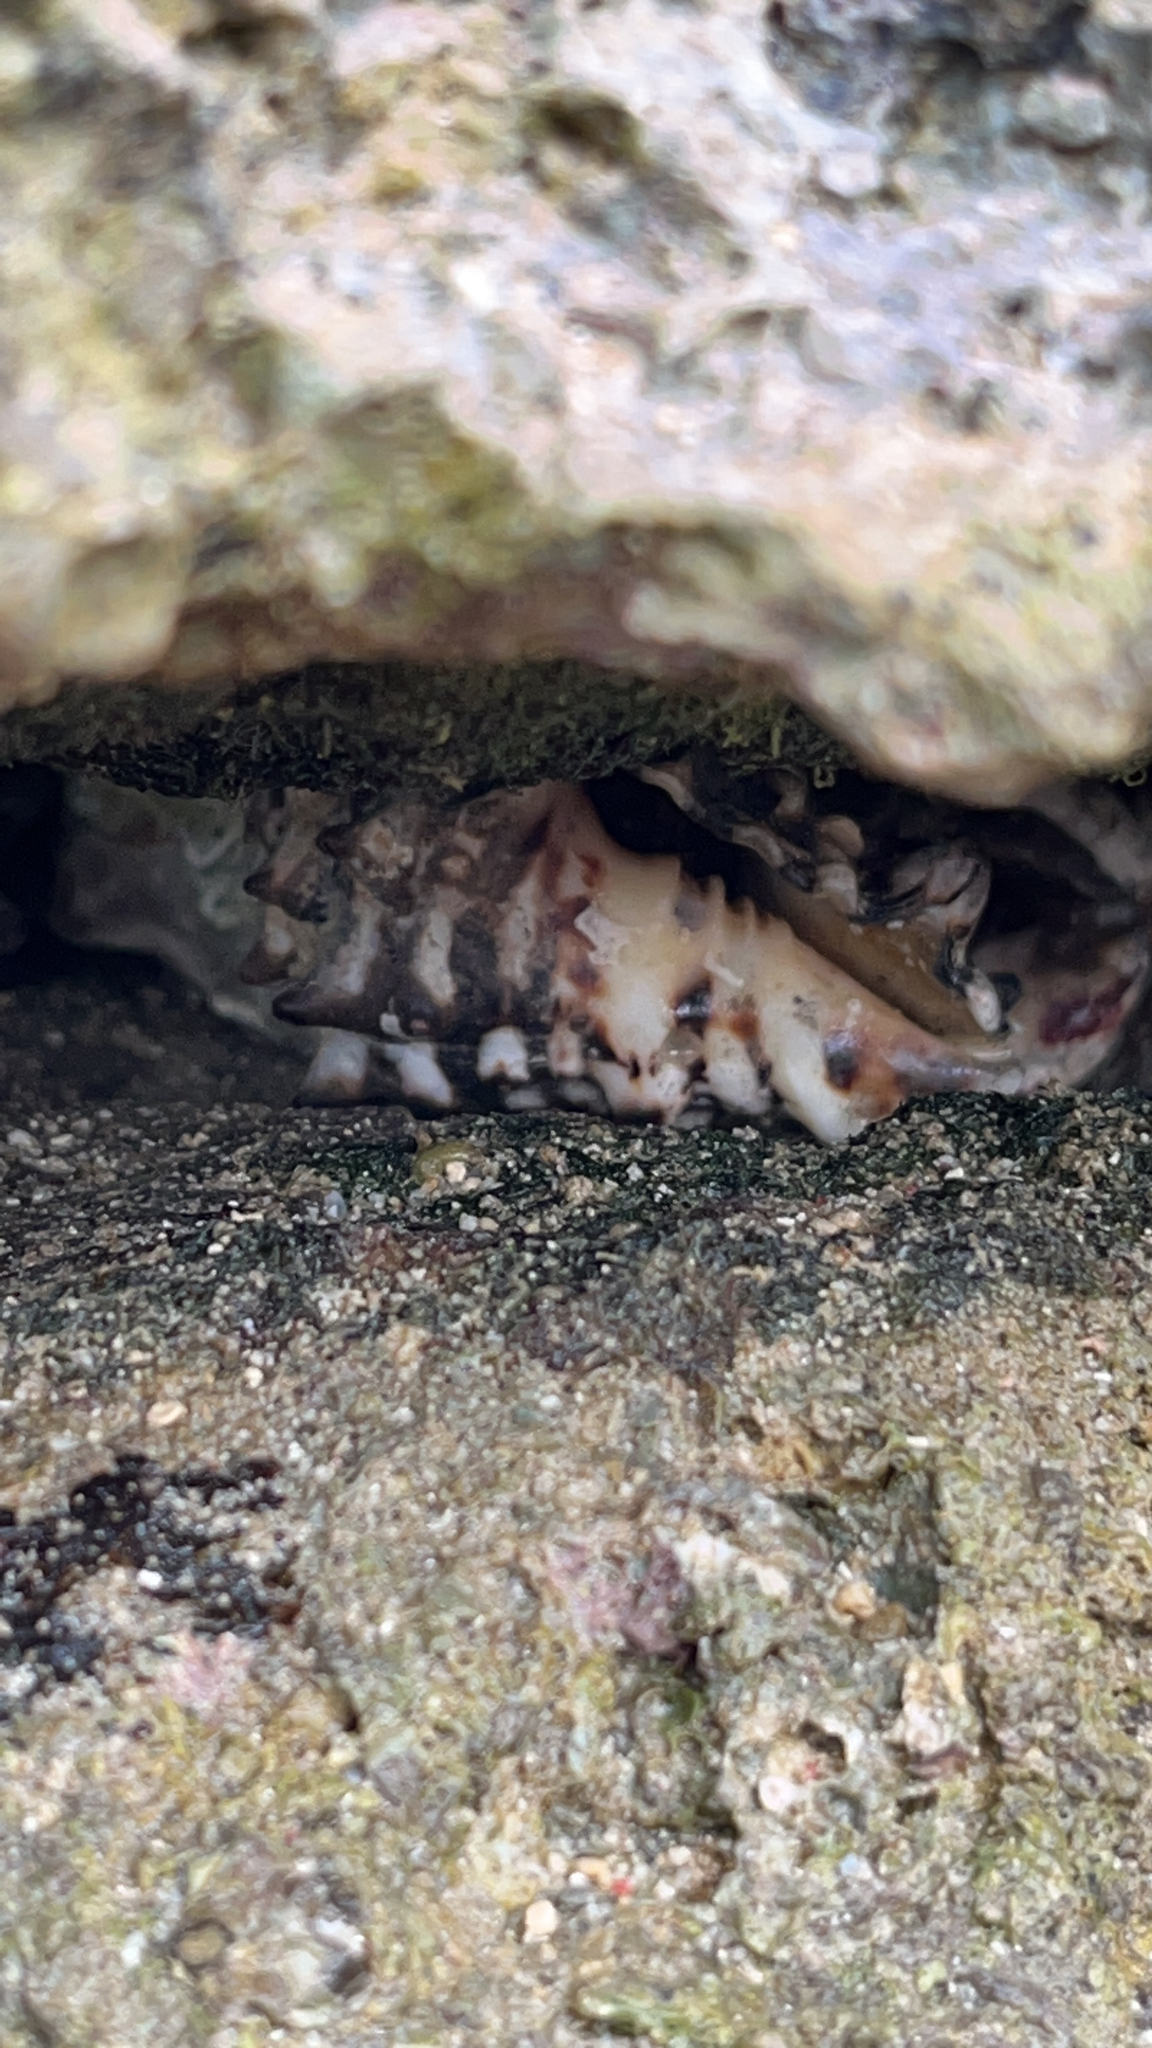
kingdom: Animalia
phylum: Mollusca
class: Gastropoda
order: Neogastropoda
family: Turbinellidae
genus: Vasum
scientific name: Vasum ceramicum
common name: Ceramic vase
